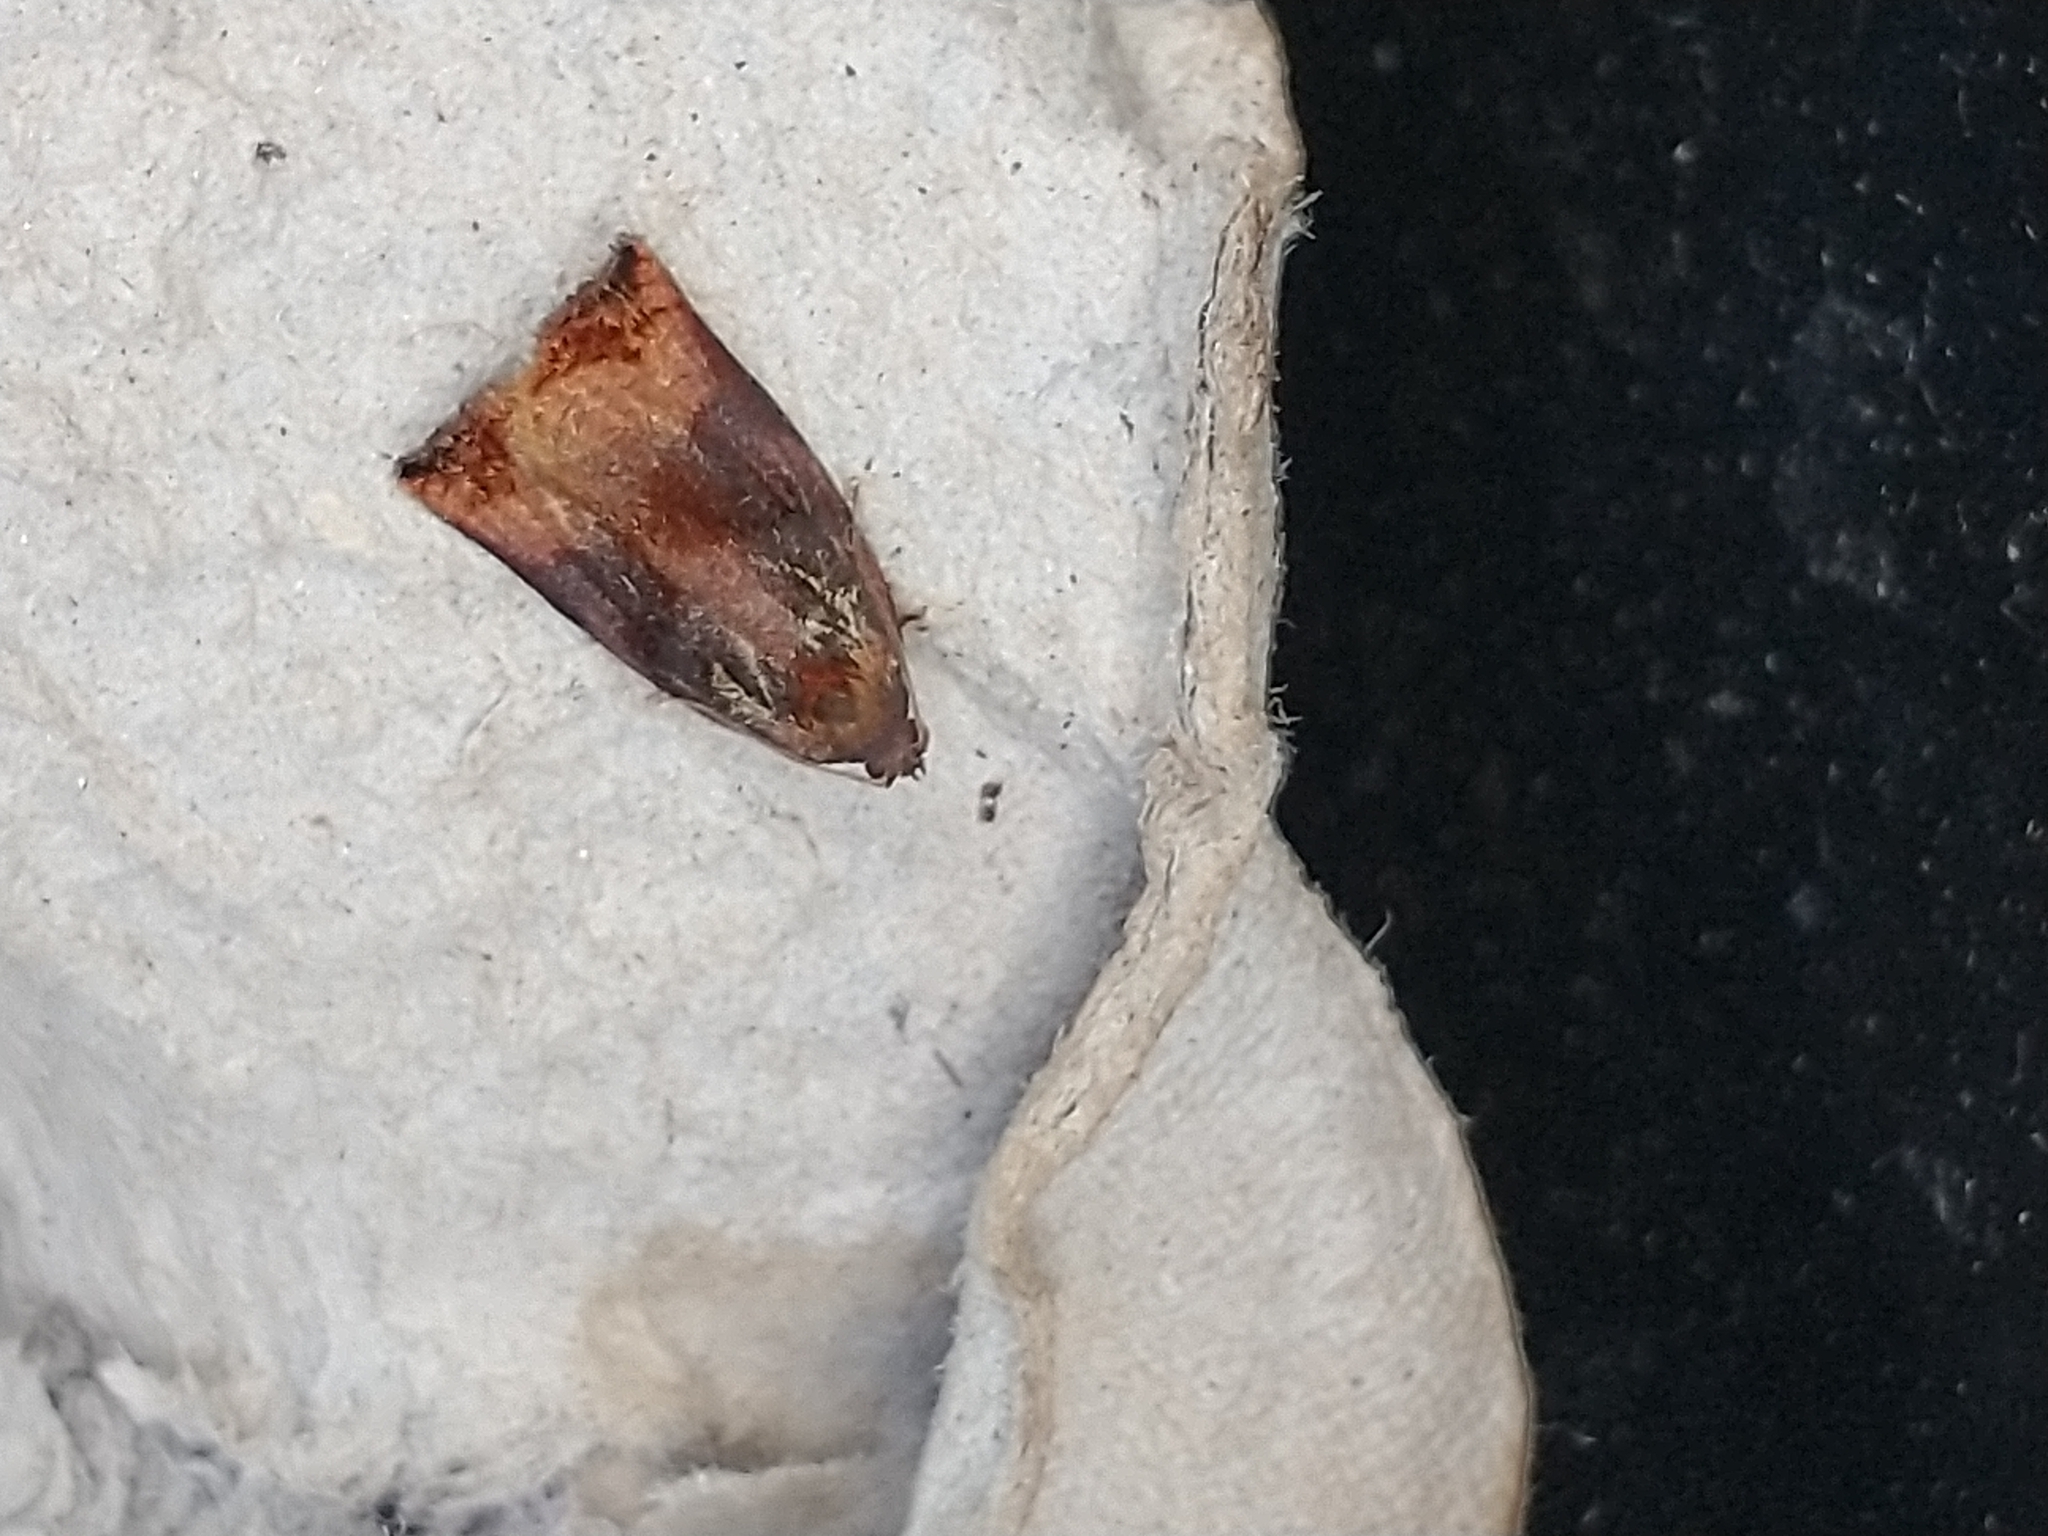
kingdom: Animalia
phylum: Arthropoda
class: Insecta
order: Lepidoptera
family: Tortricidae
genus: Archips
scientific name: Archips podana
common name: Large fruit-tree tortrix
